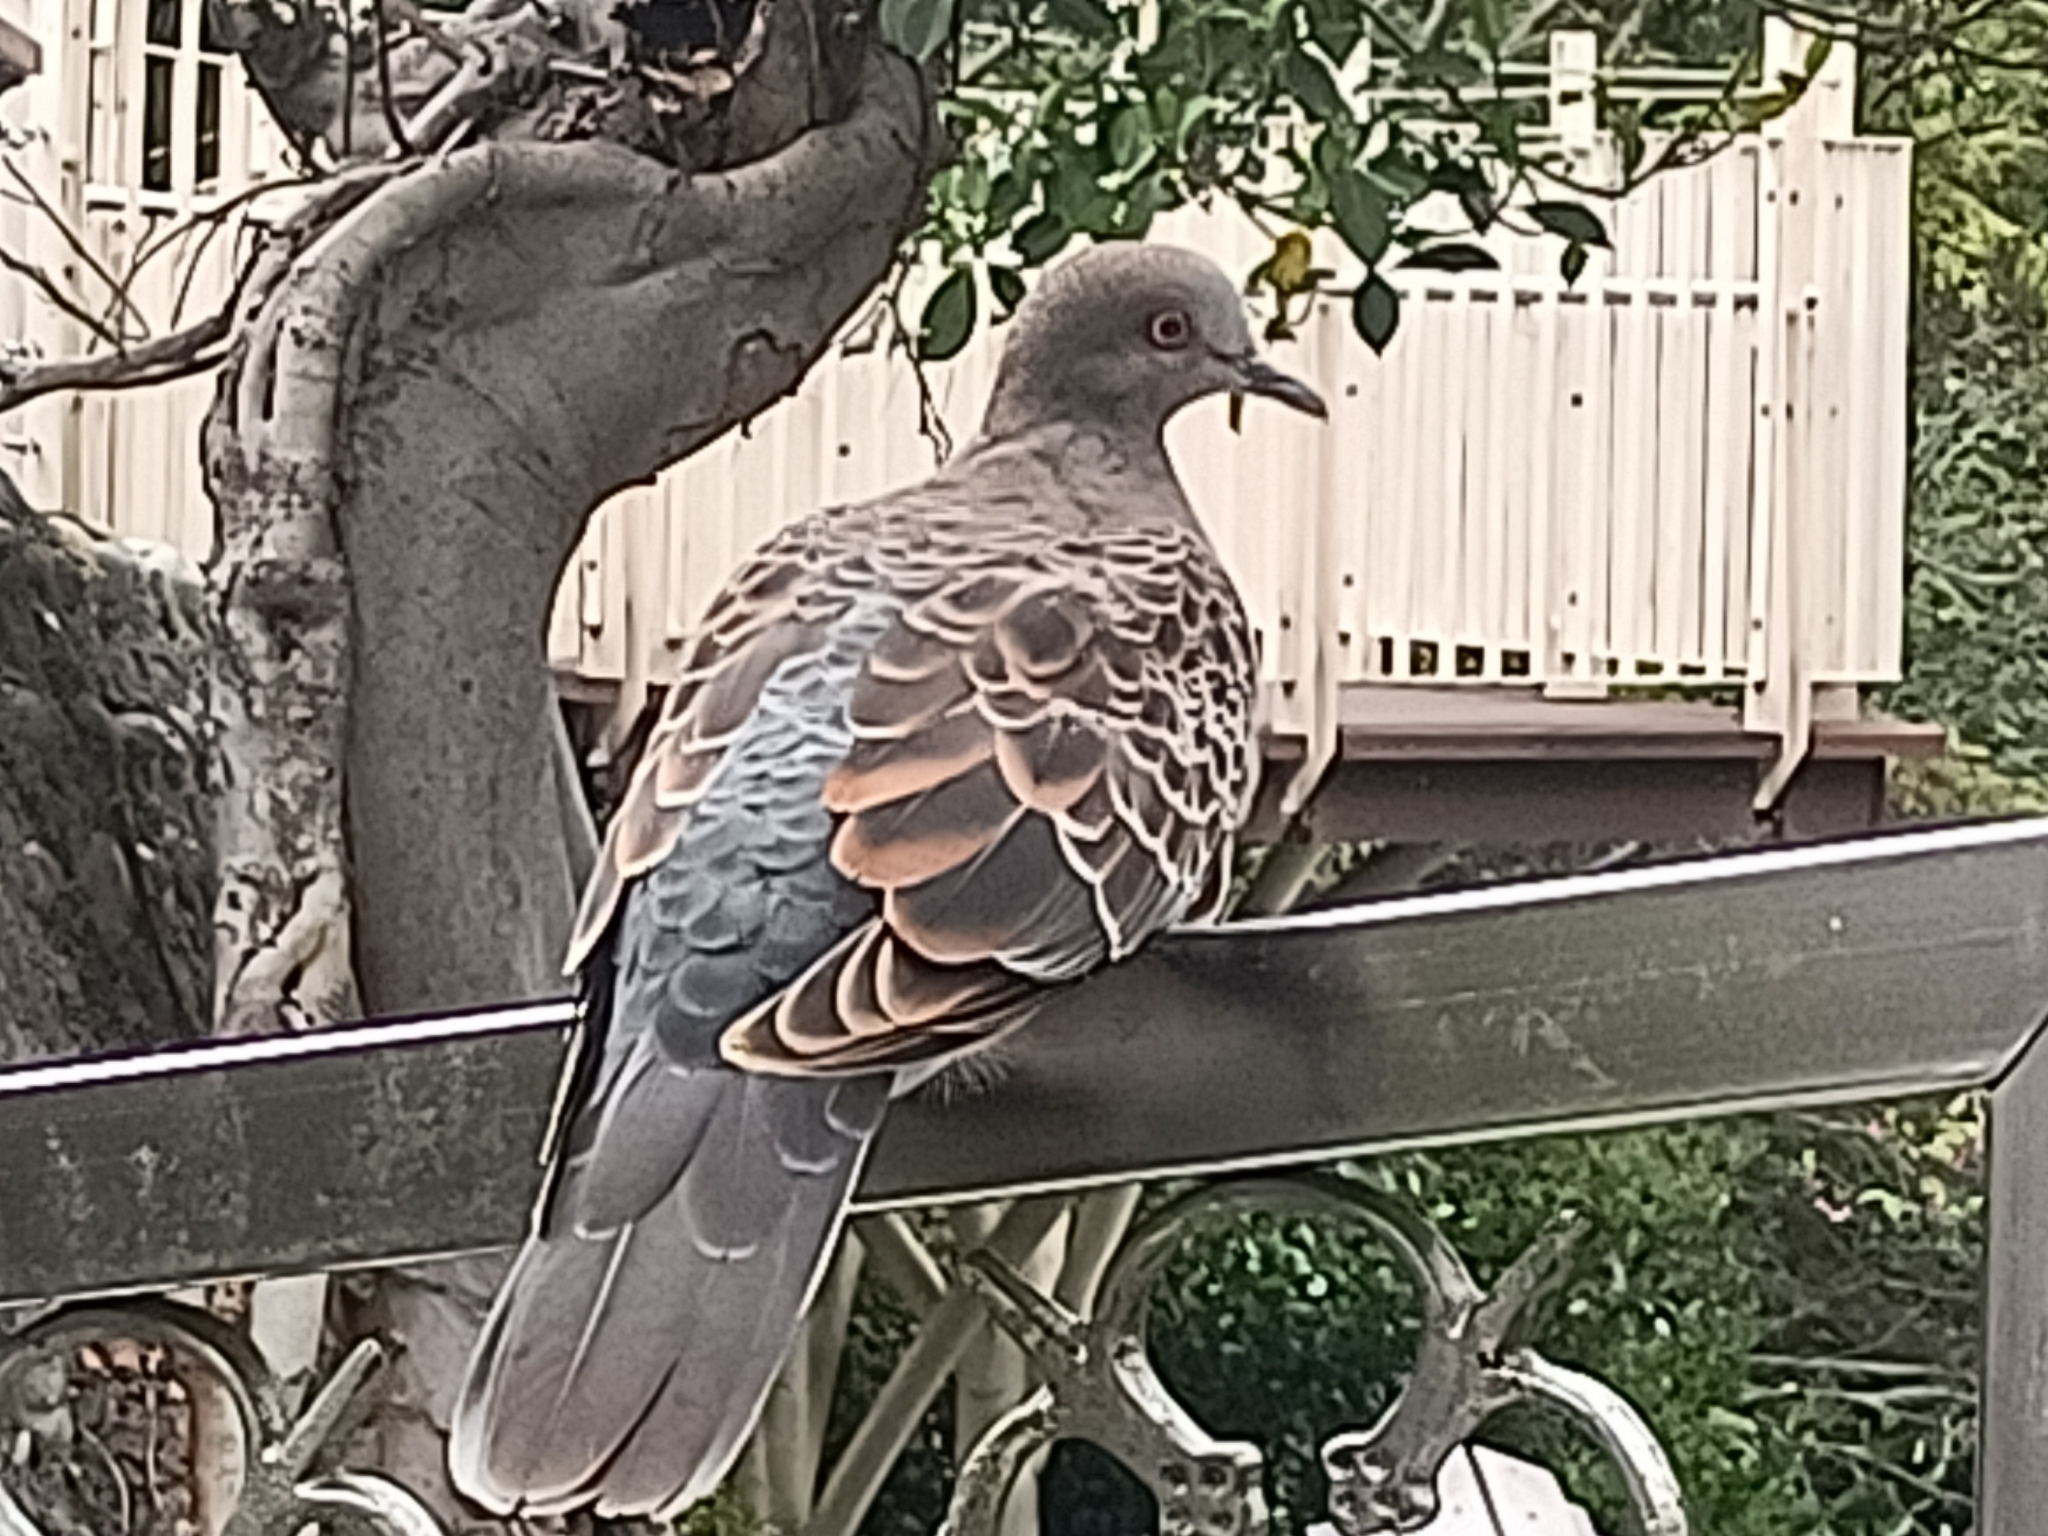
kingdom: Animalia
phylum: Chordata
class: Aves
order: Columbiformes
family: Columbidae
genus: Streptopelia
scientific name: Streptopelia orientalis
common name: Oriental turtle dove
